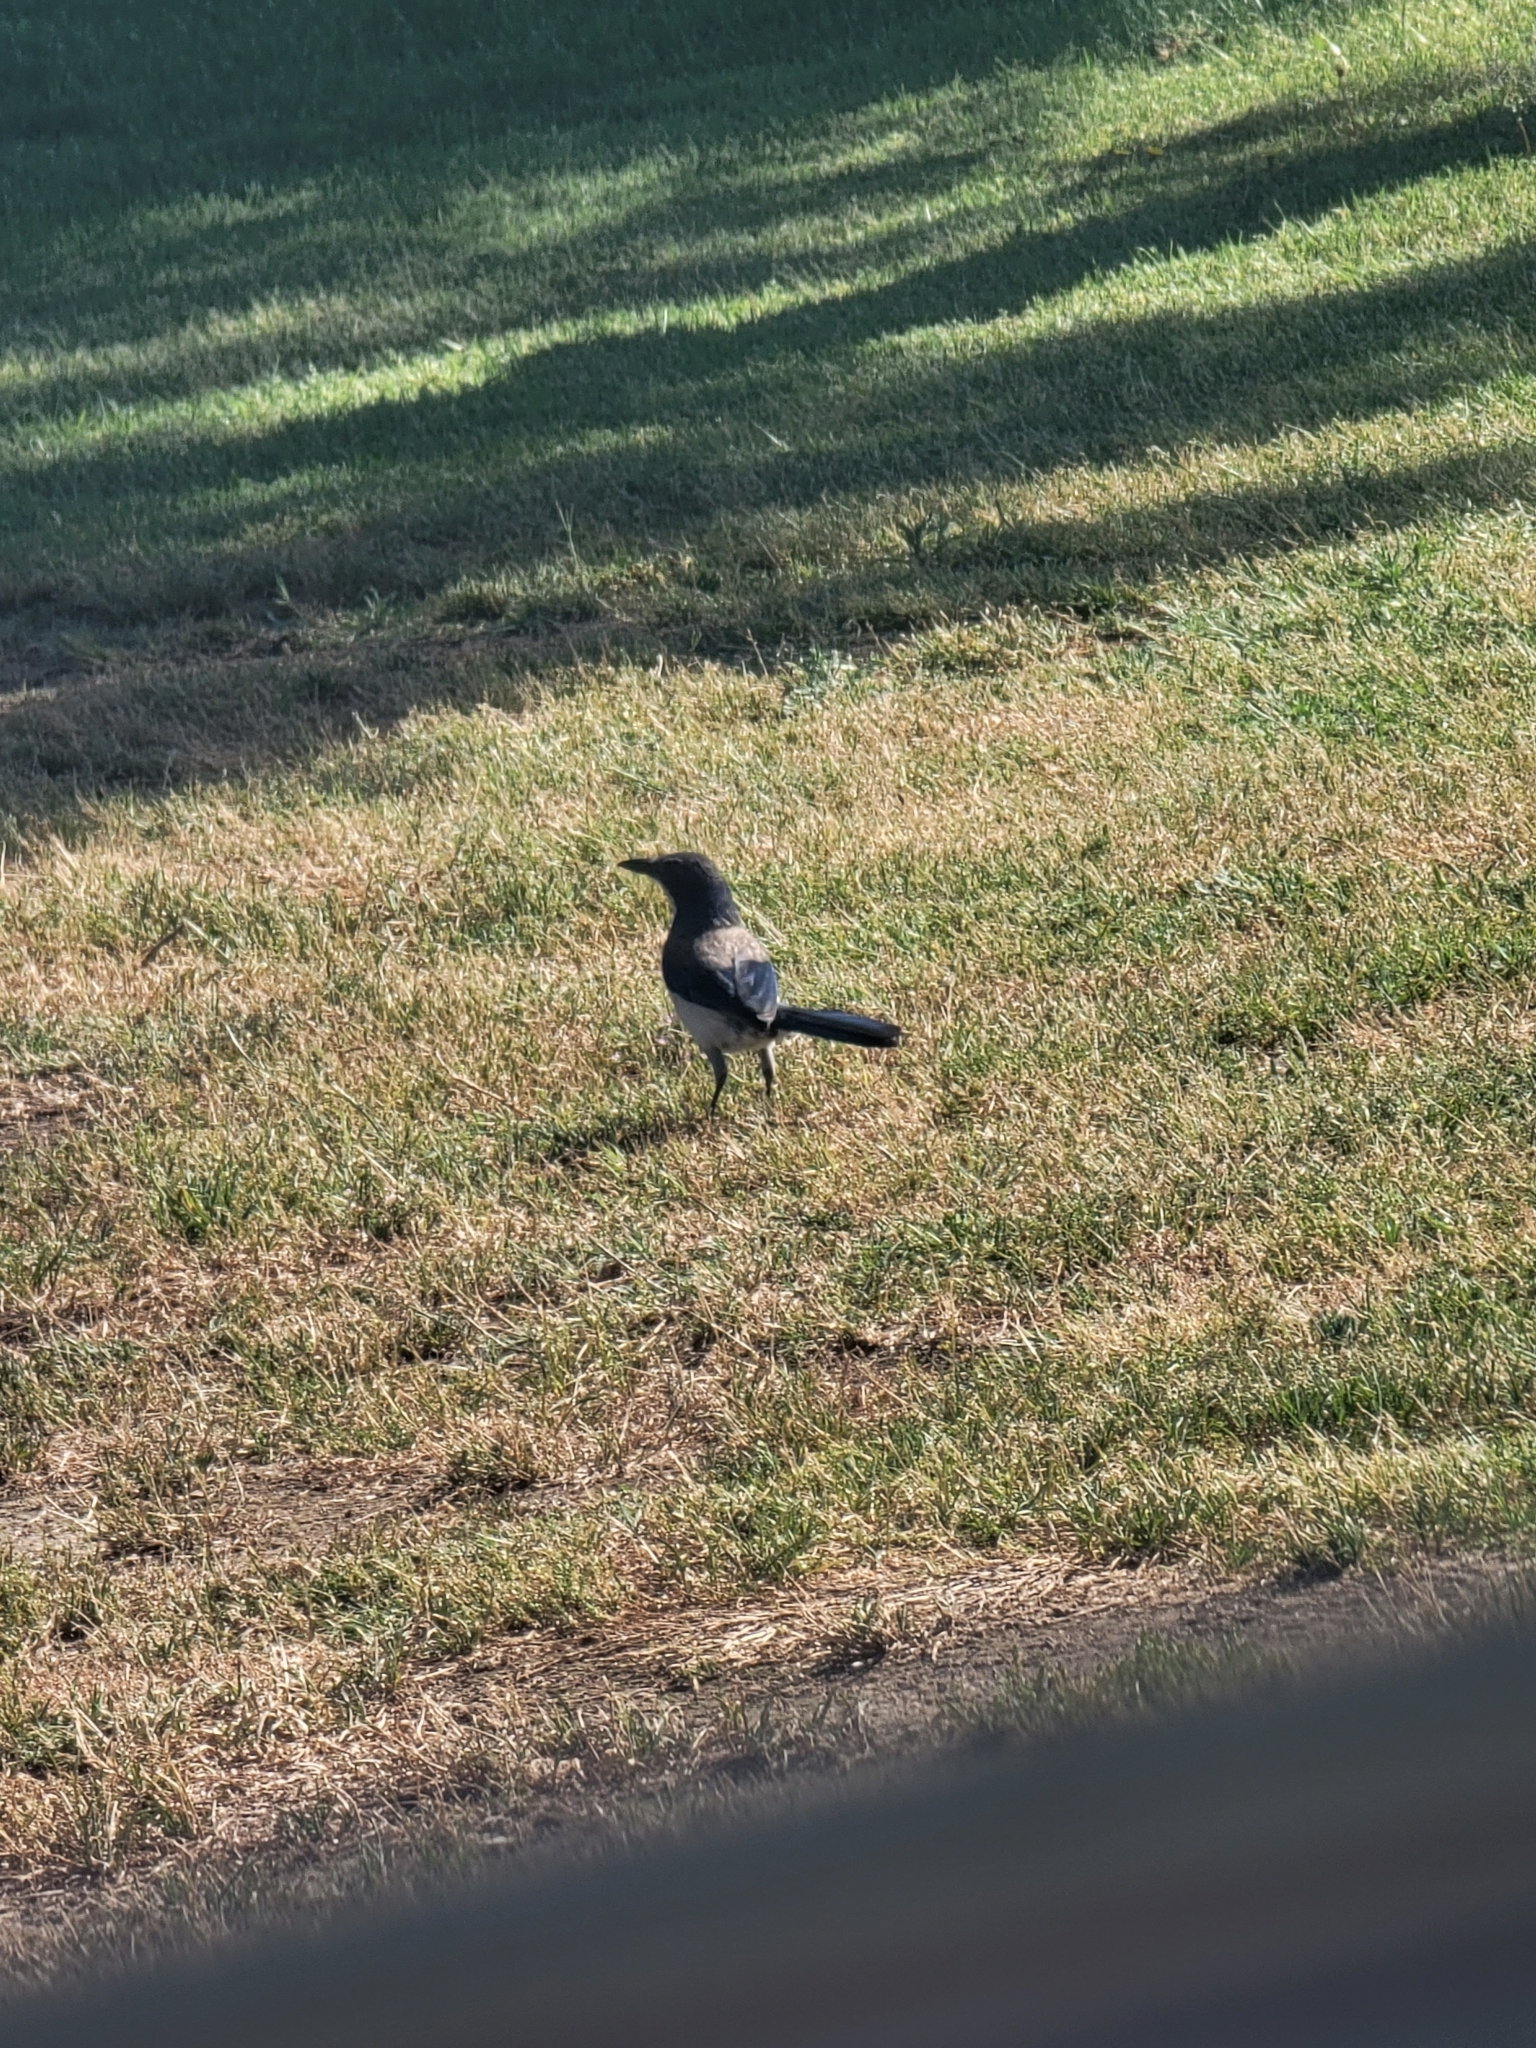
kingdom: Animalia
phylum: Chordata
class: Aves
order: Passeriformes
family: Corvidae
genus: Aphelocoma
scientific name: Aphelocoma californica
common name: California scrub-jay
